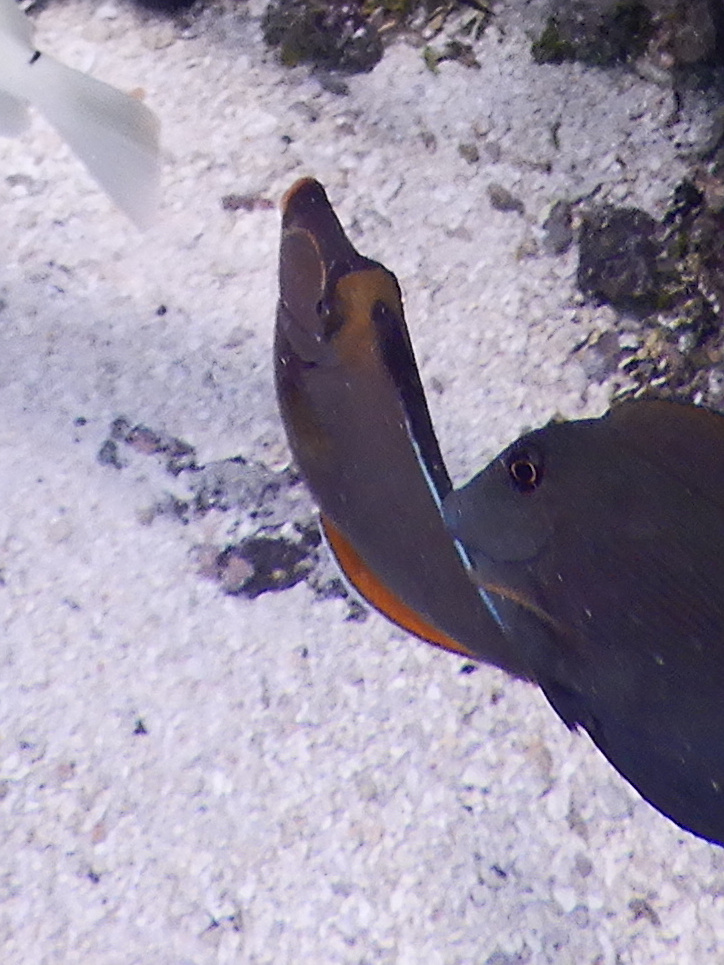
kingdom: Animalia
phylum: Chordata
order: Perciformes
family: Acanthuridae
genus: Naso
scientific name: Naso lituratus
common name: Orangespine unicornfish
